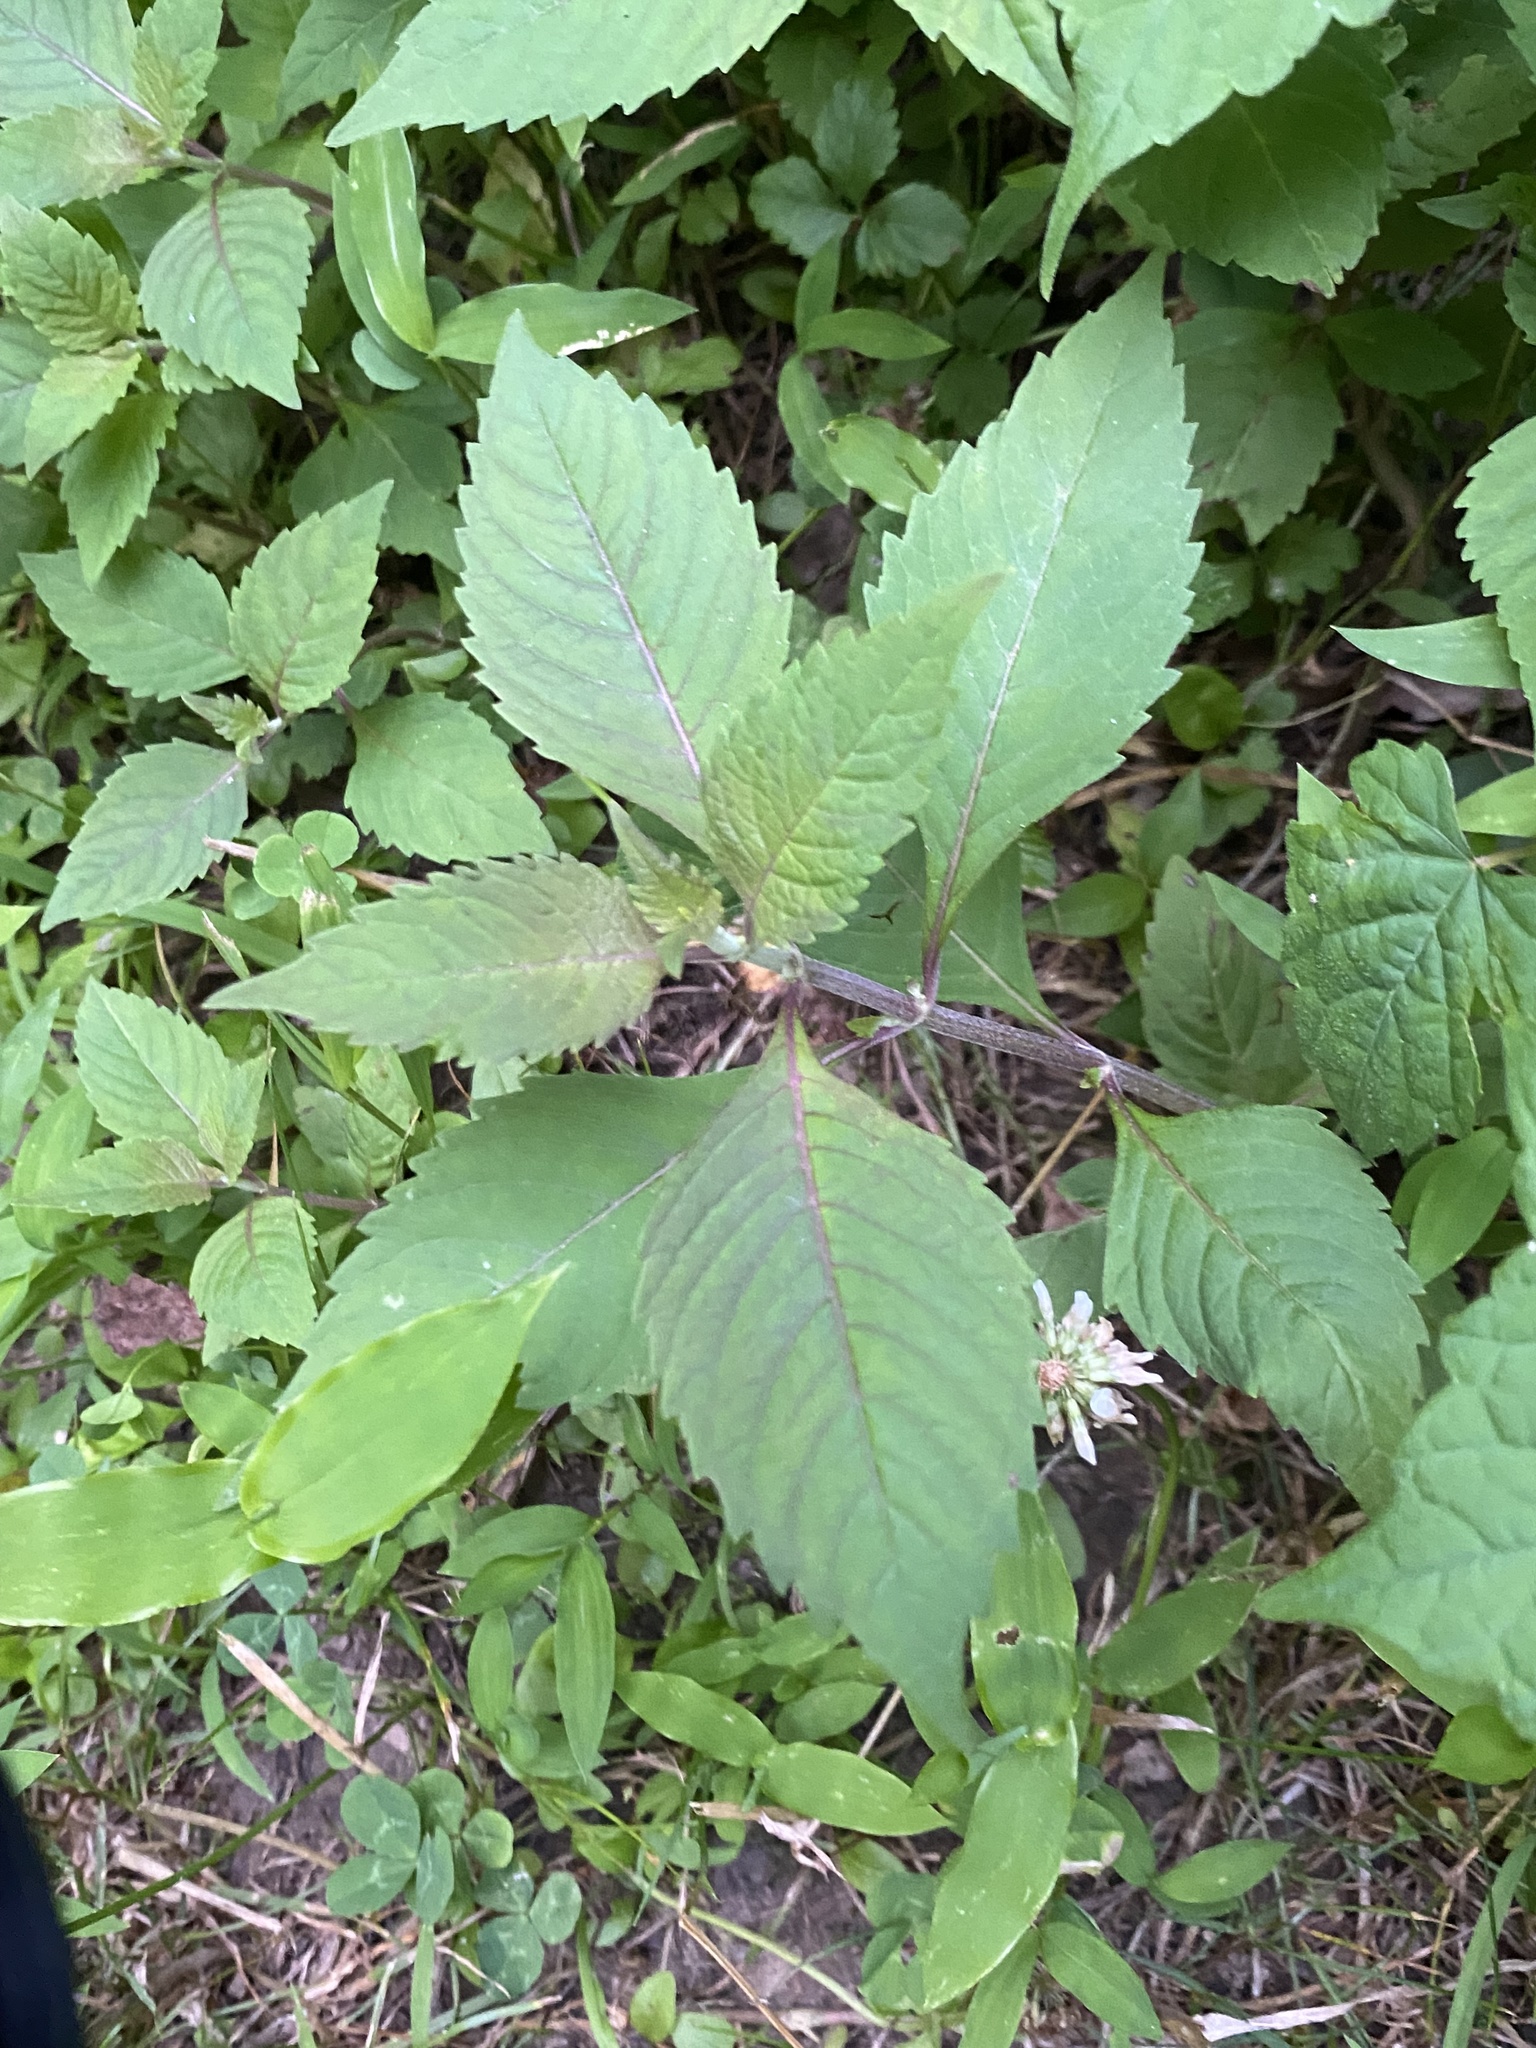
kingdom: Plantae
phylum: Tracheophyta
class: Magnoliopsida
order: Lamiales
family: Lamiaceae
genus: Lycopus
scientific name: Lycopus uniflorus
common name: Northern bugleweed
